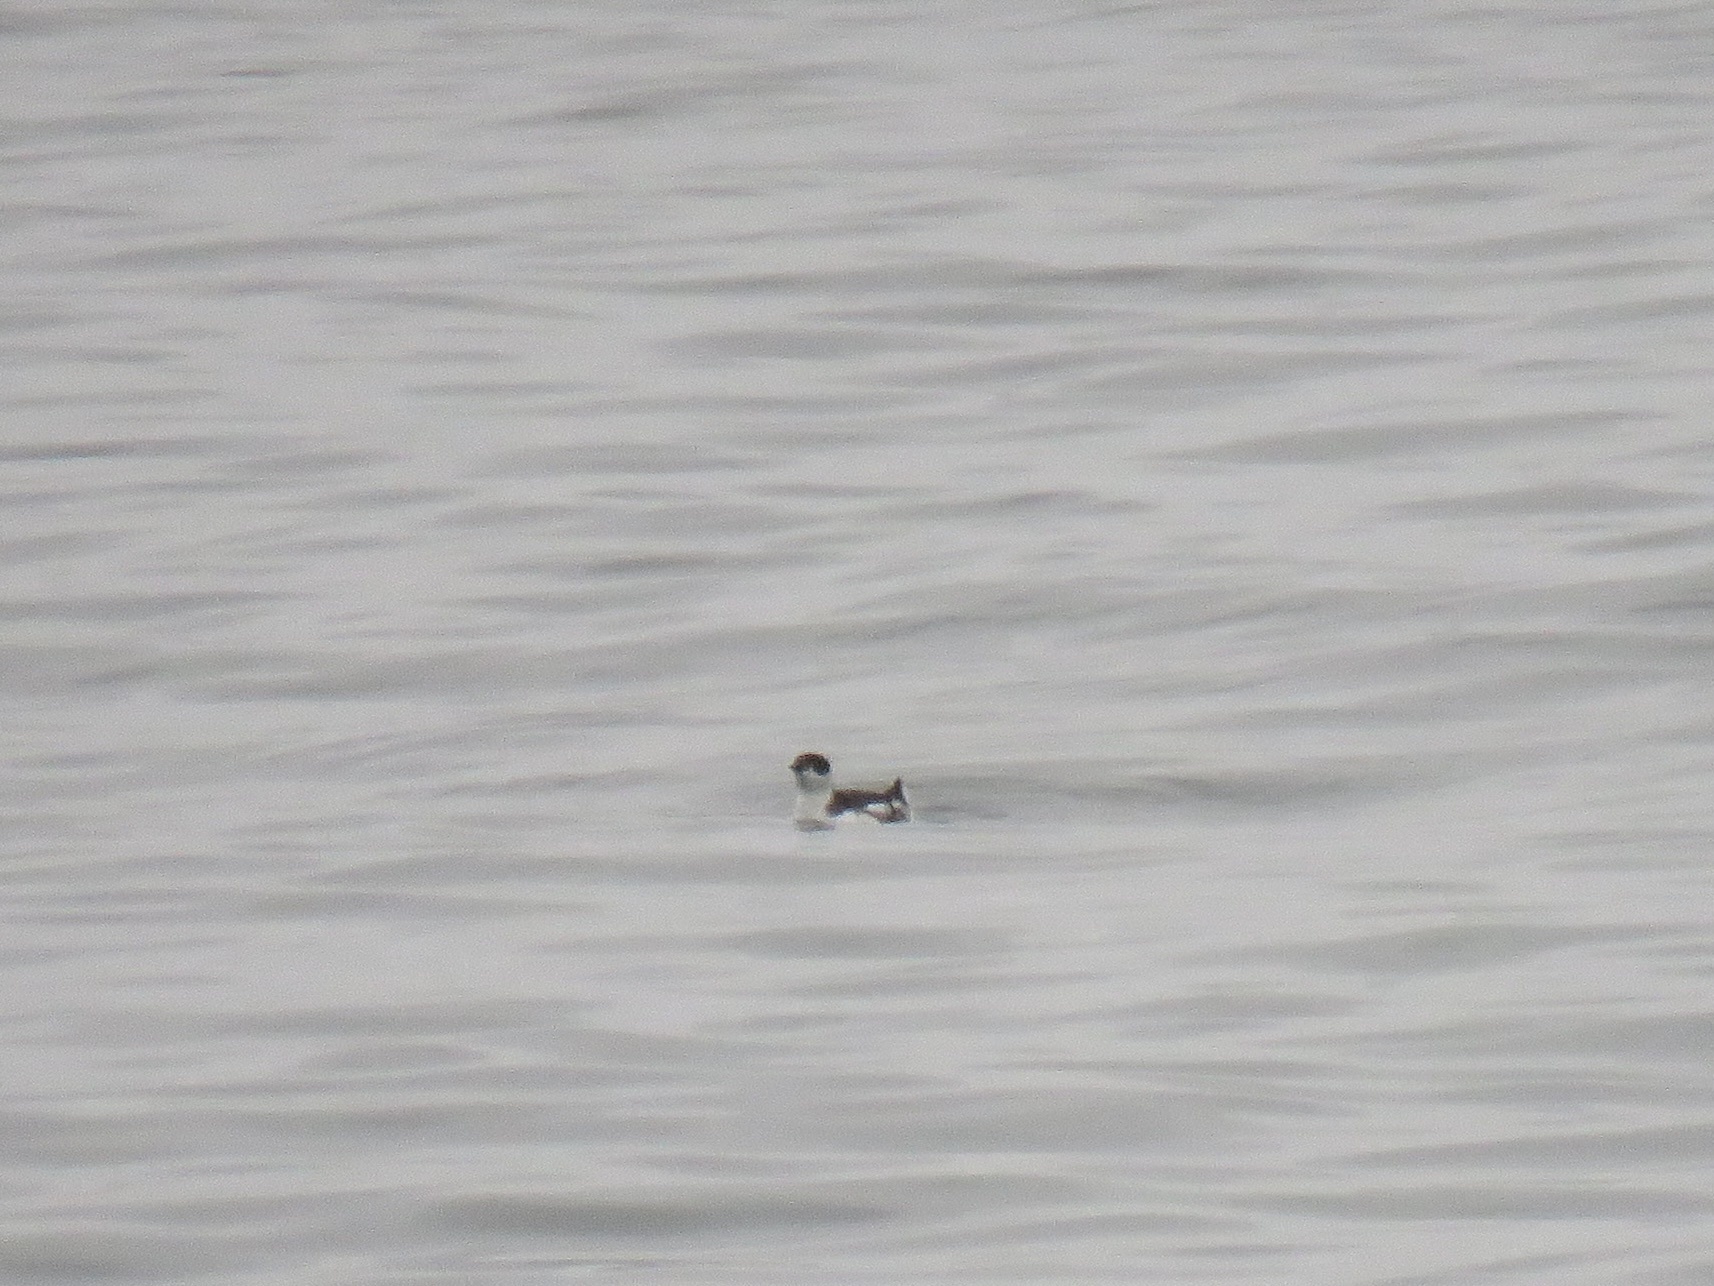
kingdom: Animalia
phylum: Chordata
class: Aves
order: Charadriiformes
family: Alcidae
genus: Brachyramphus
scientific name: Brachyramphus marmoratus
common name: Marbled murrelet
